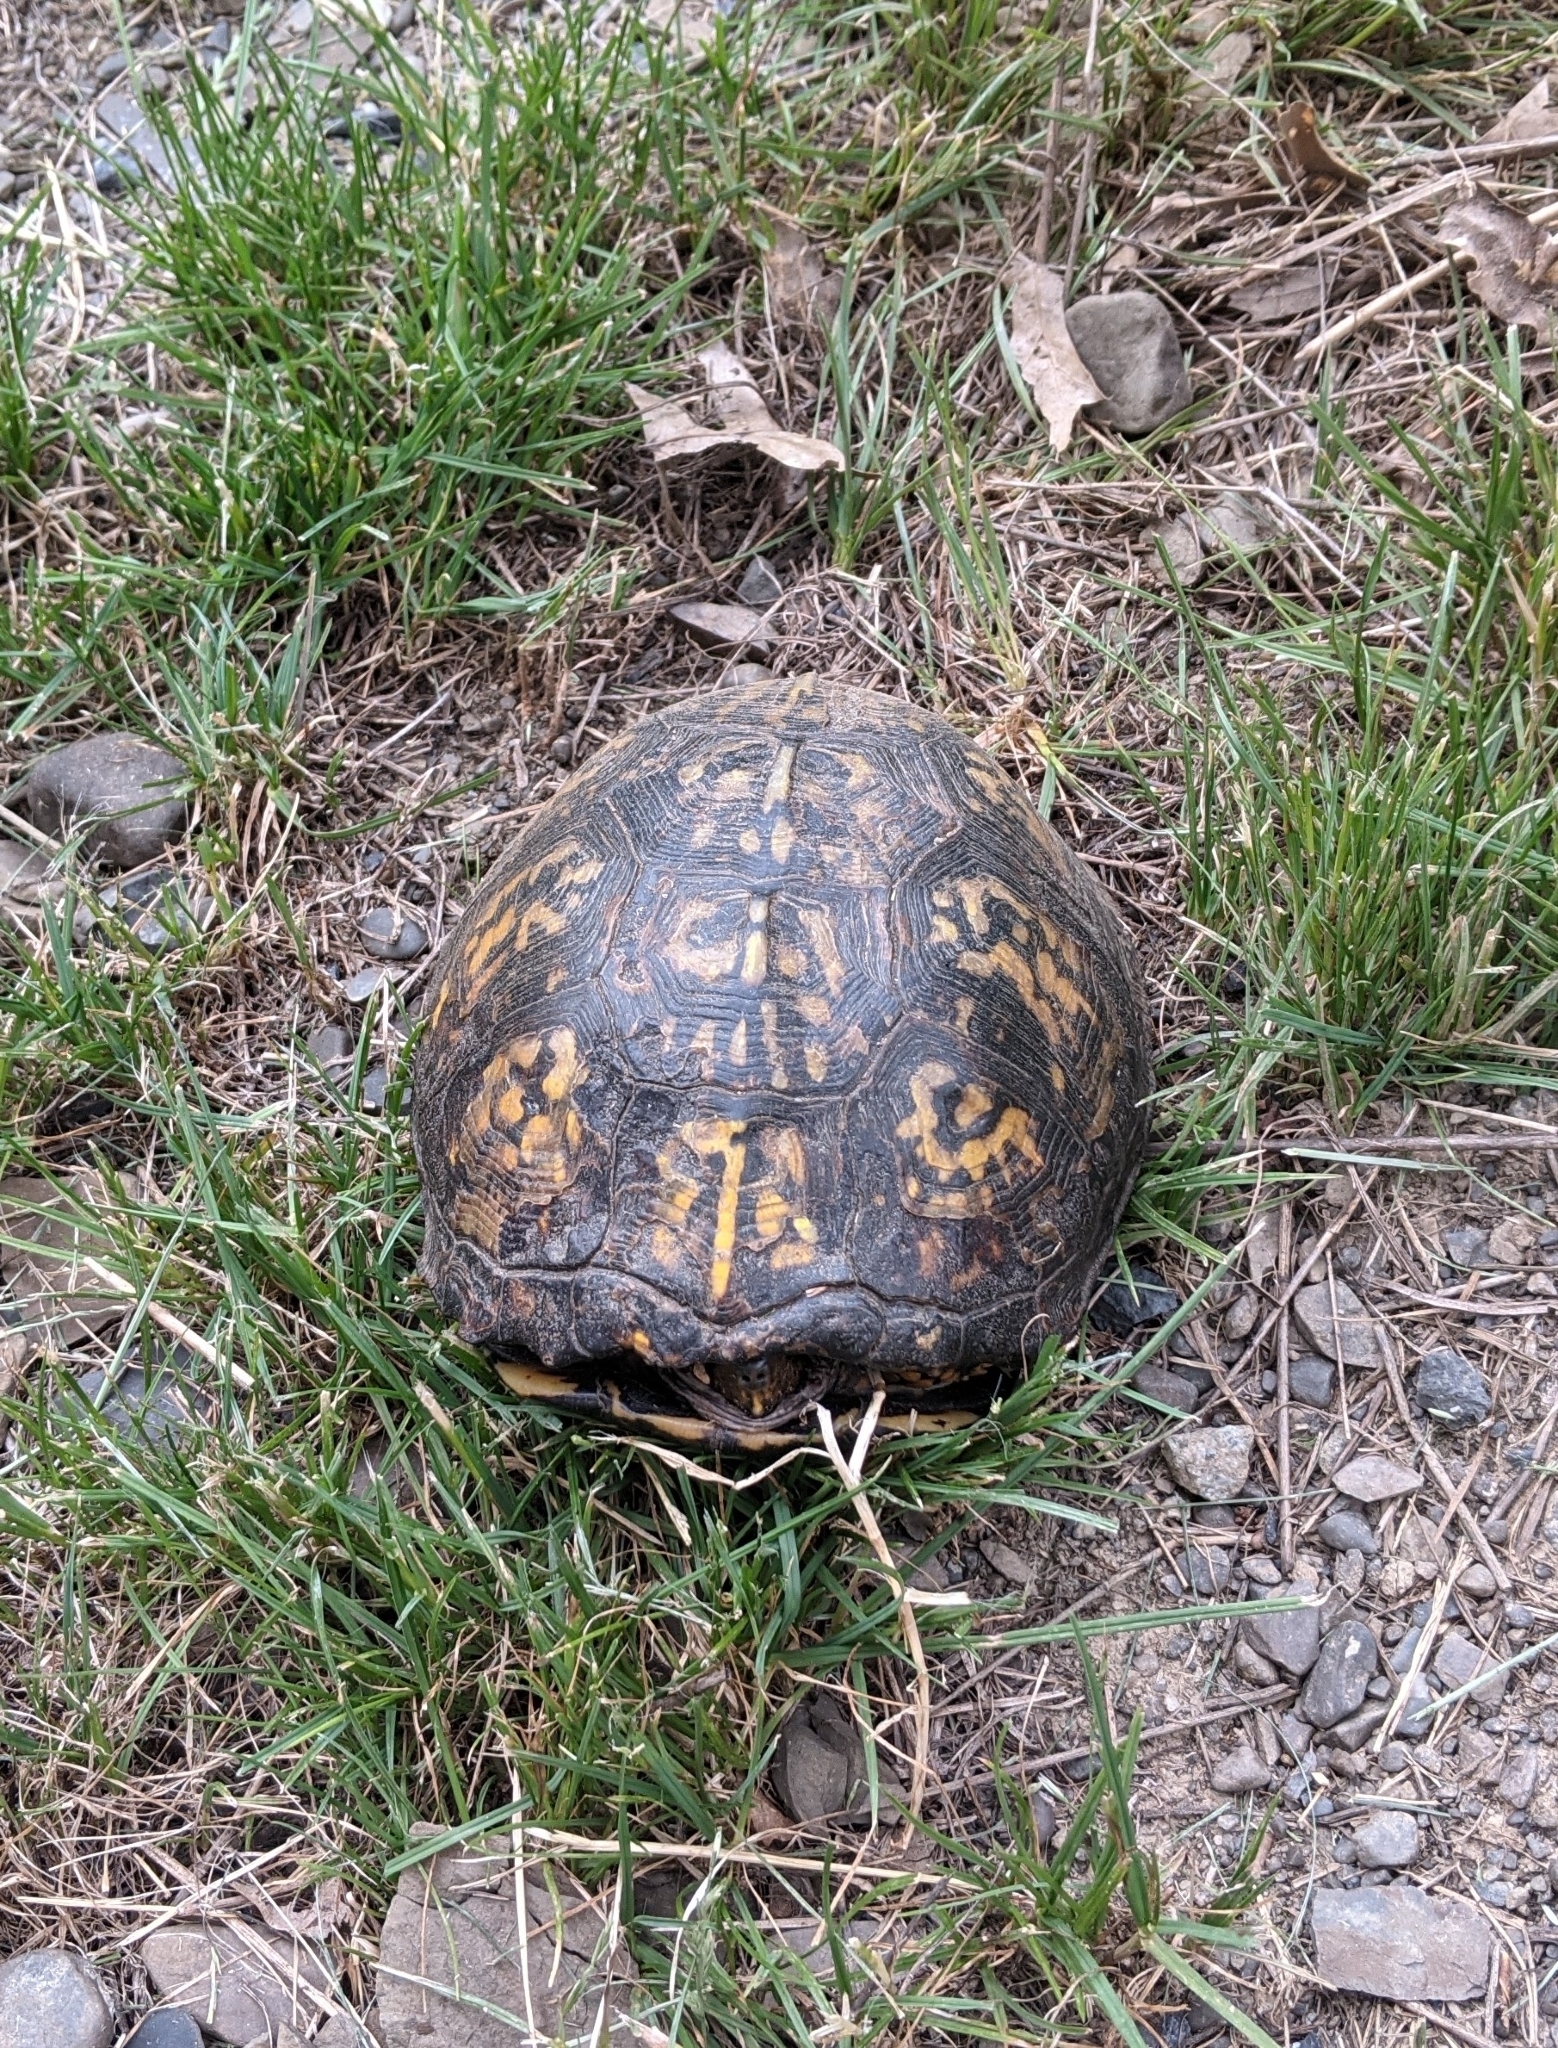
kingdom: Animalia
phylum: Chordata
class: Testudines
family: Emydidae
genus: Terrapene
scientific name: Terrapene carolina
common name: Common box turtle
